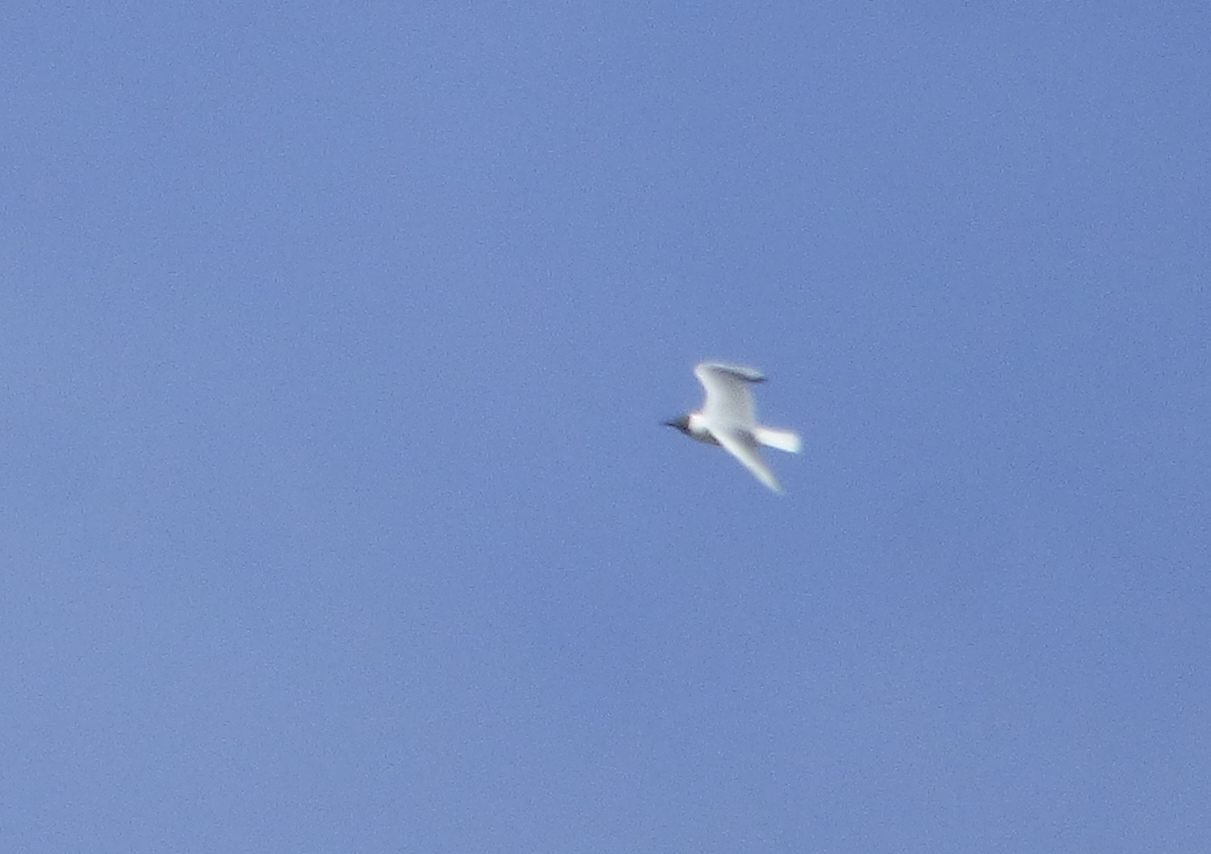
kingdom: Animalia
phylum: Chordata
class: Aves
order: Charadriiformes
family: Laridae
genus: Chroicocephalus
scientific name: Chroicocephalus maculipennis
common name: Brown-hooded gull
